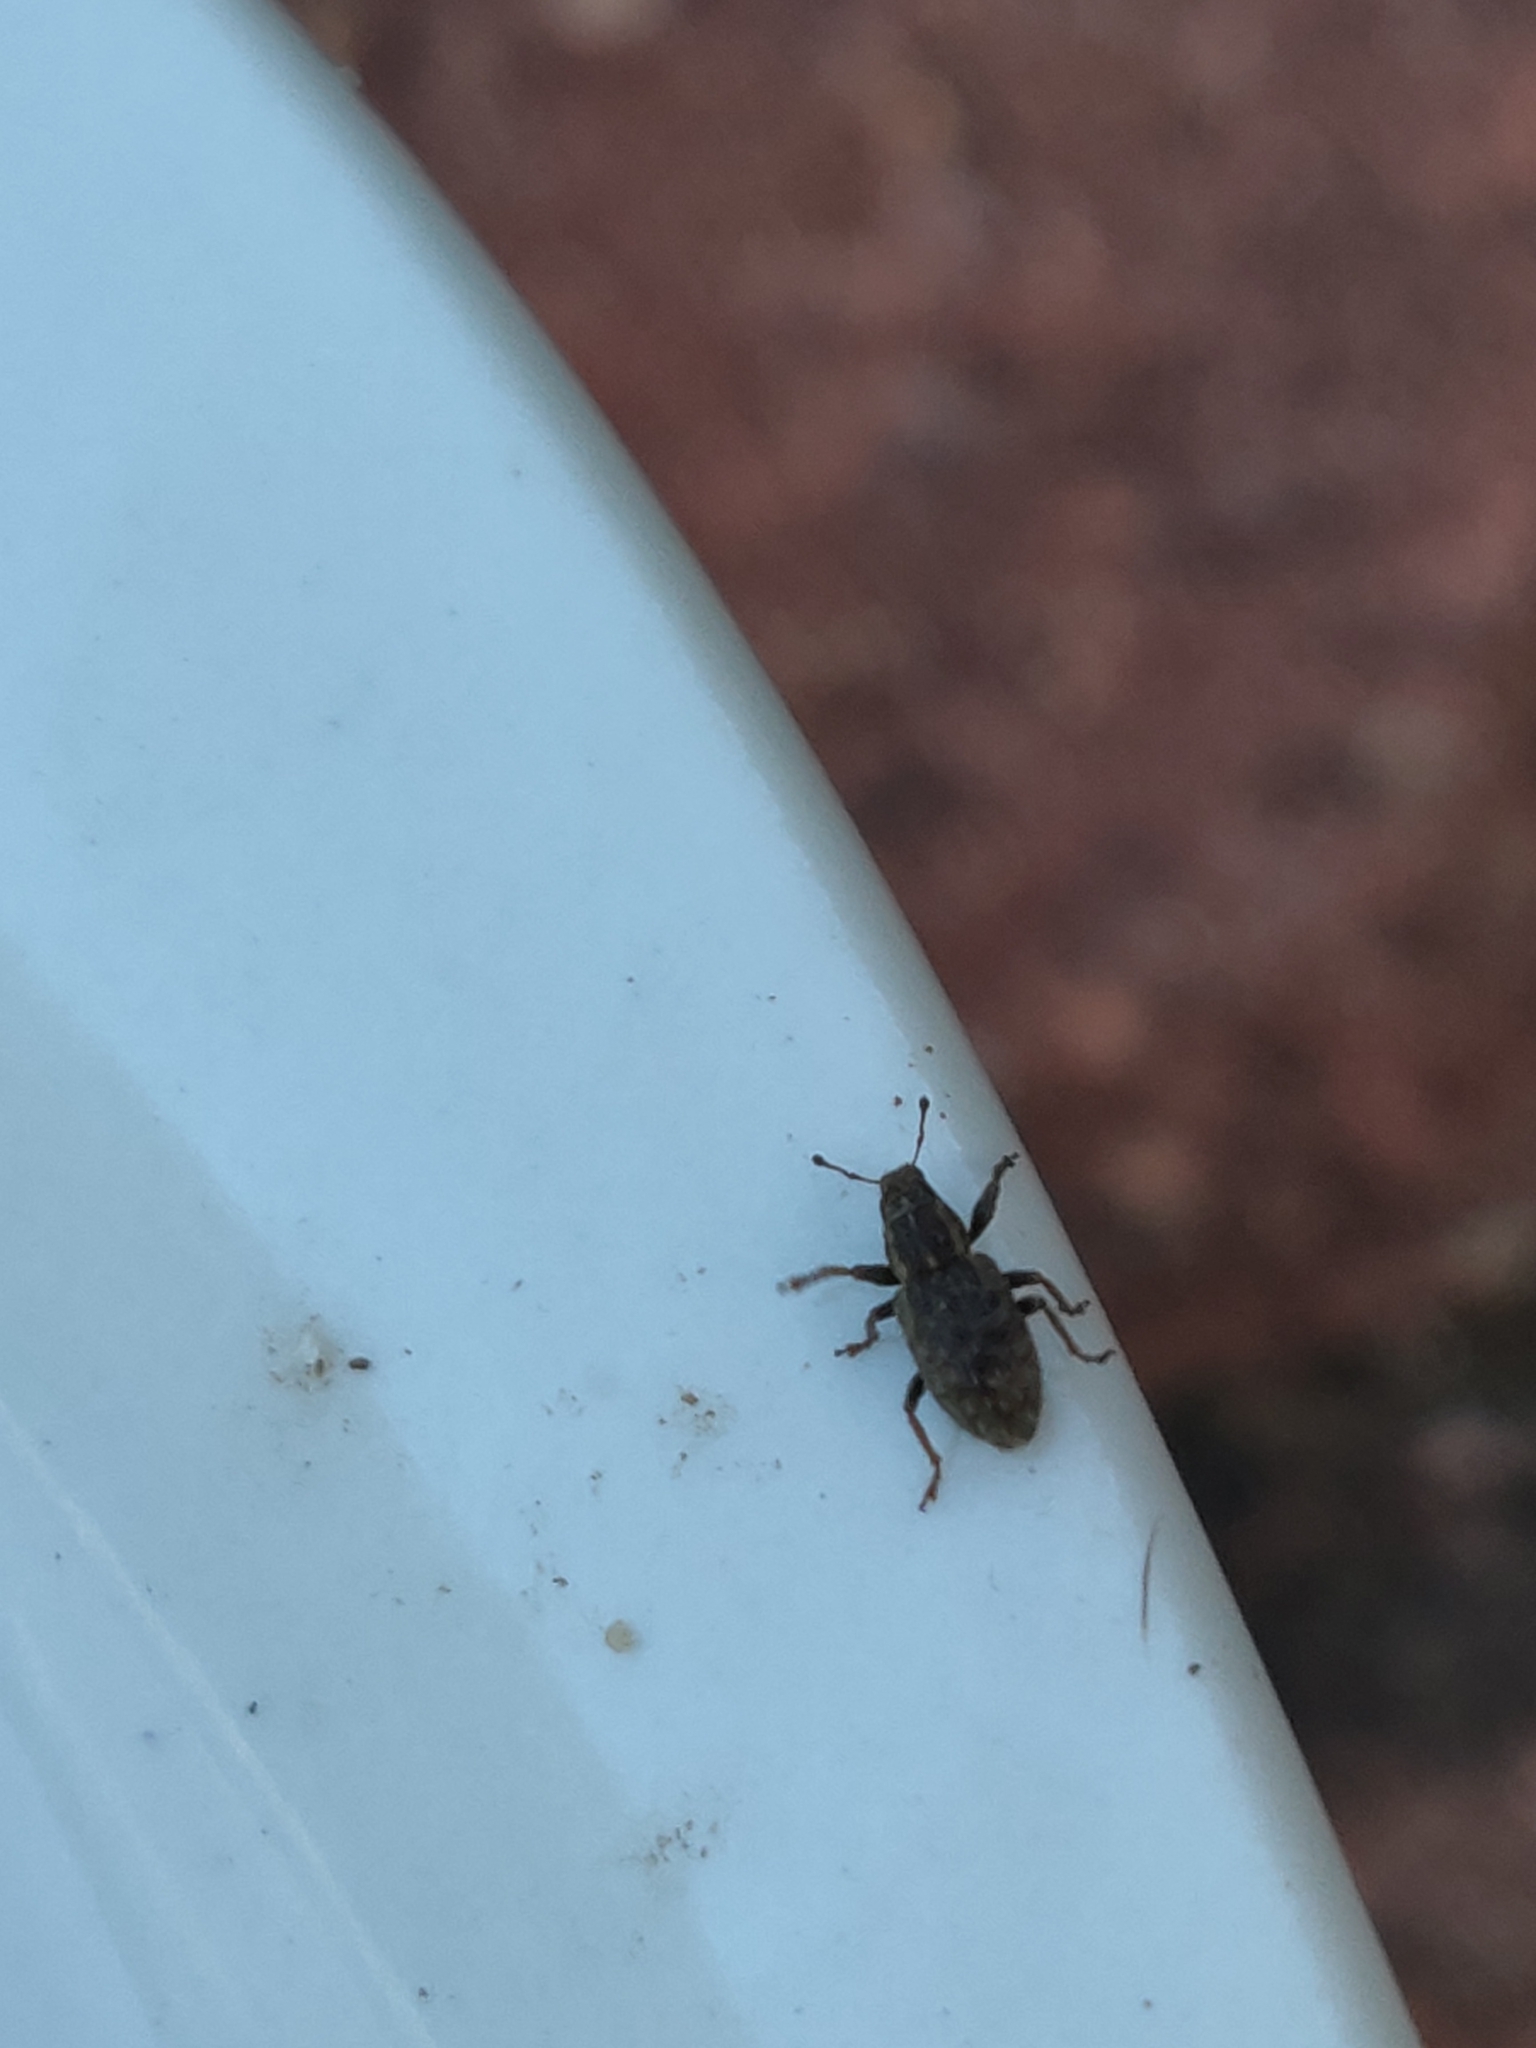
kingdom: Animalia
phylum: Arthropoda
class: Insecta
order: Coleoptera
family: Curculionidae
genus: Sitona
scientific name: Sitona hispidulus
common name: Clover weevil
